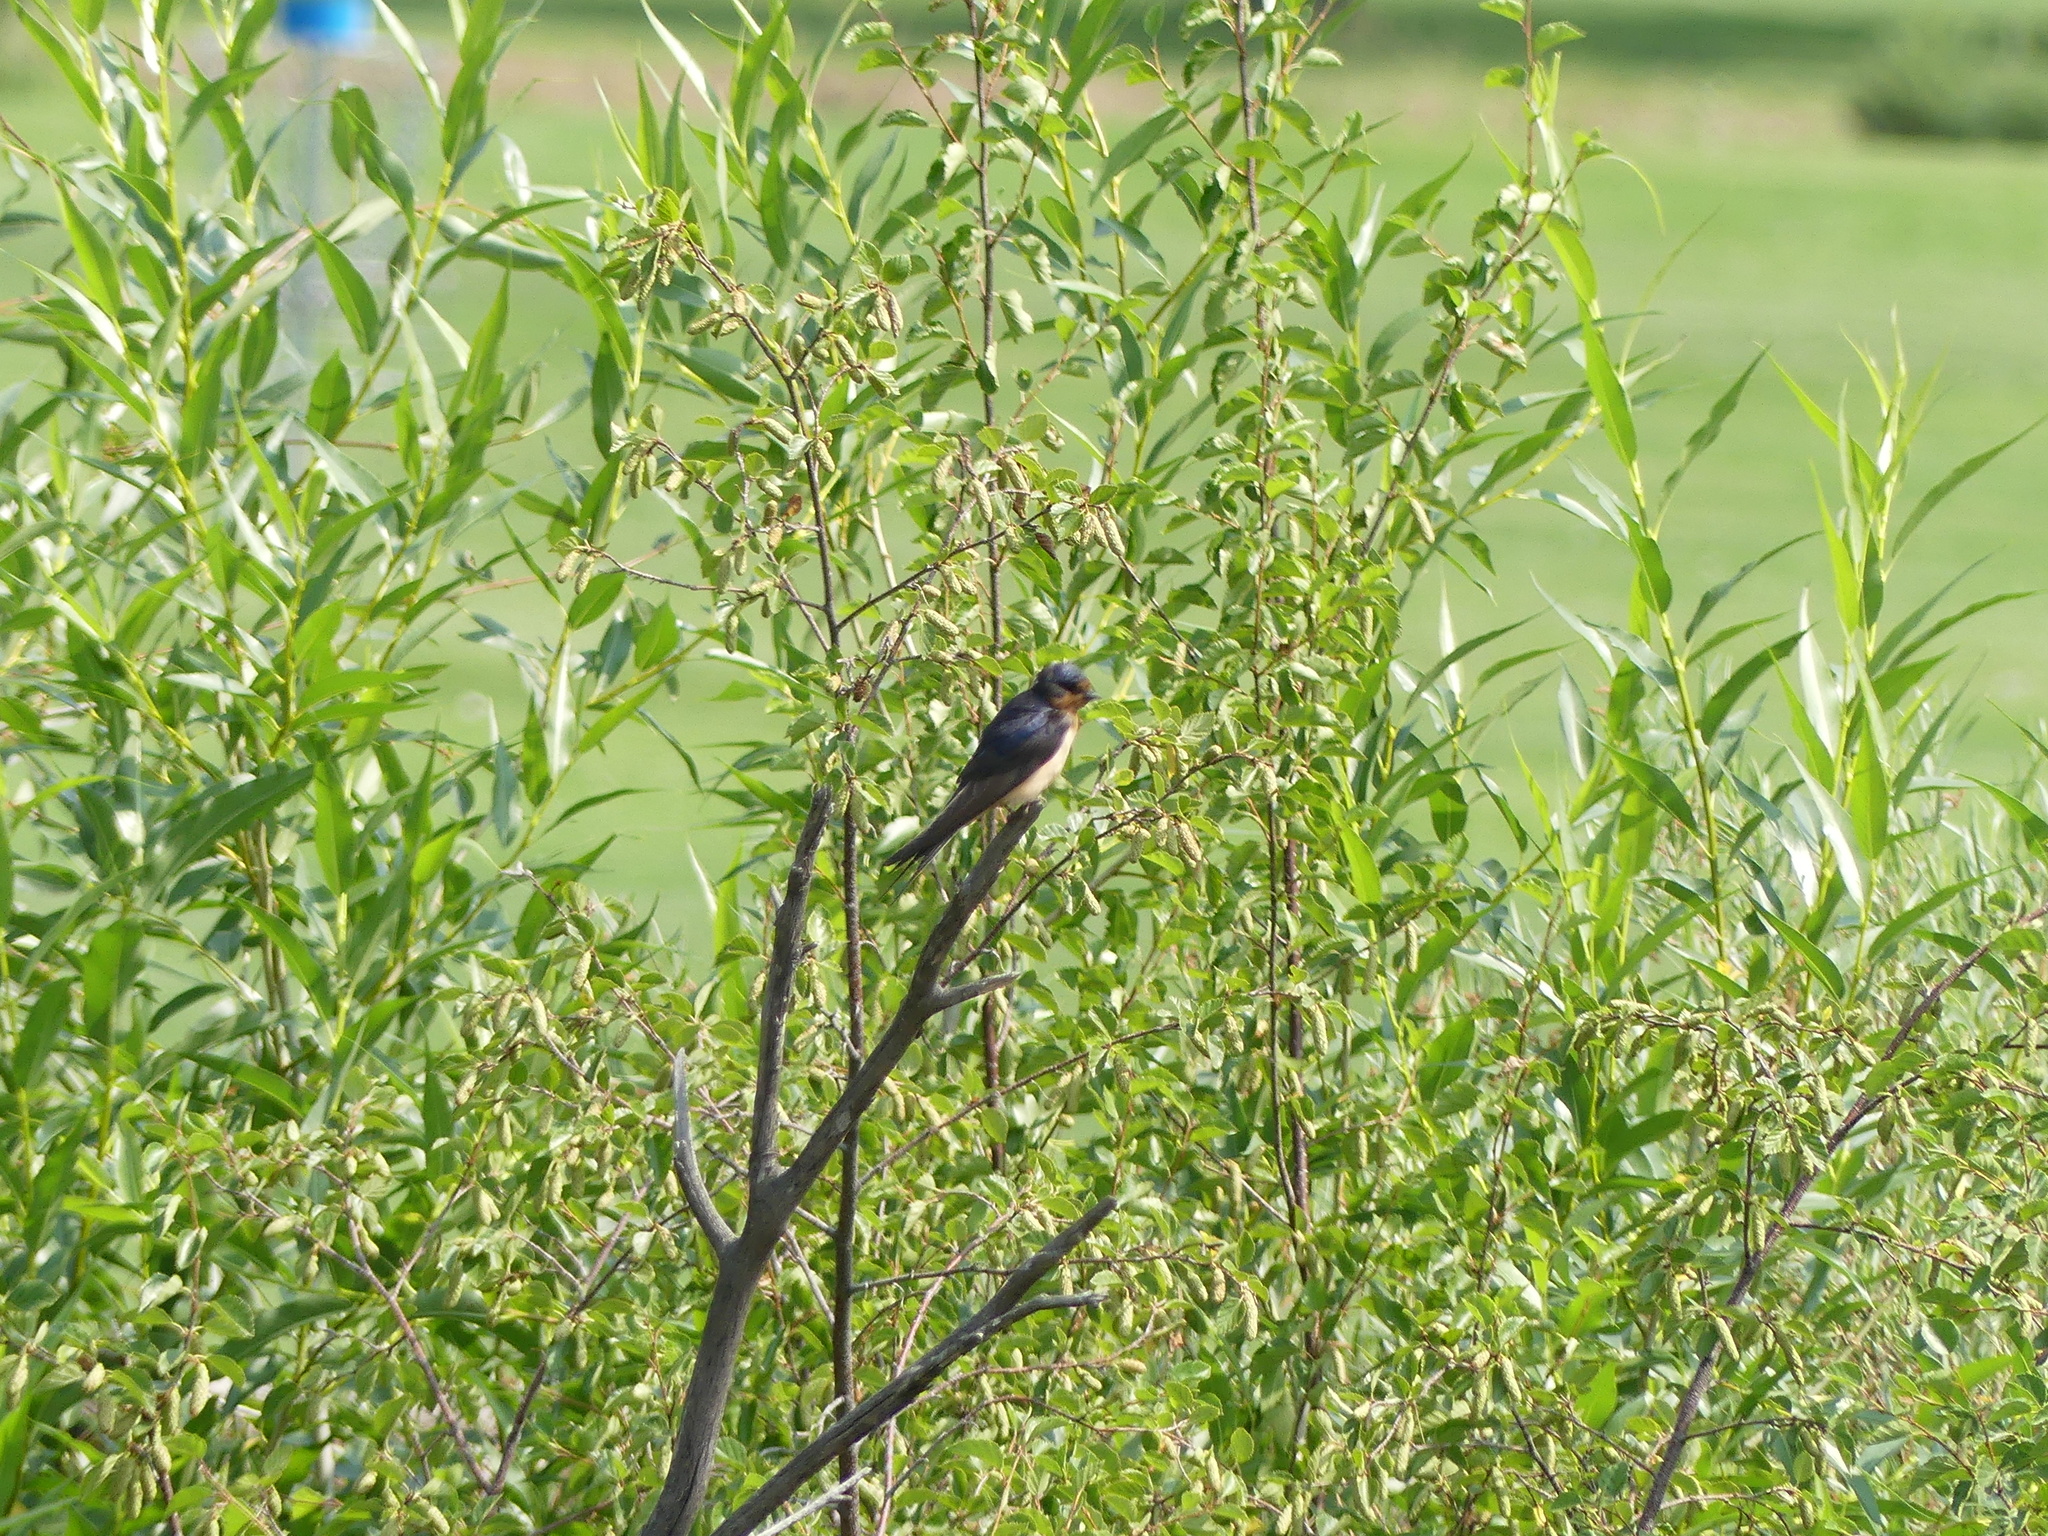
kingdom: Animalia
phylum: Chordata
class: Aves
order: Passeriformes
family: Hirundinidae
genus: Hirundo
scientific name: Hirundo rustica
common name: Barn swallow
